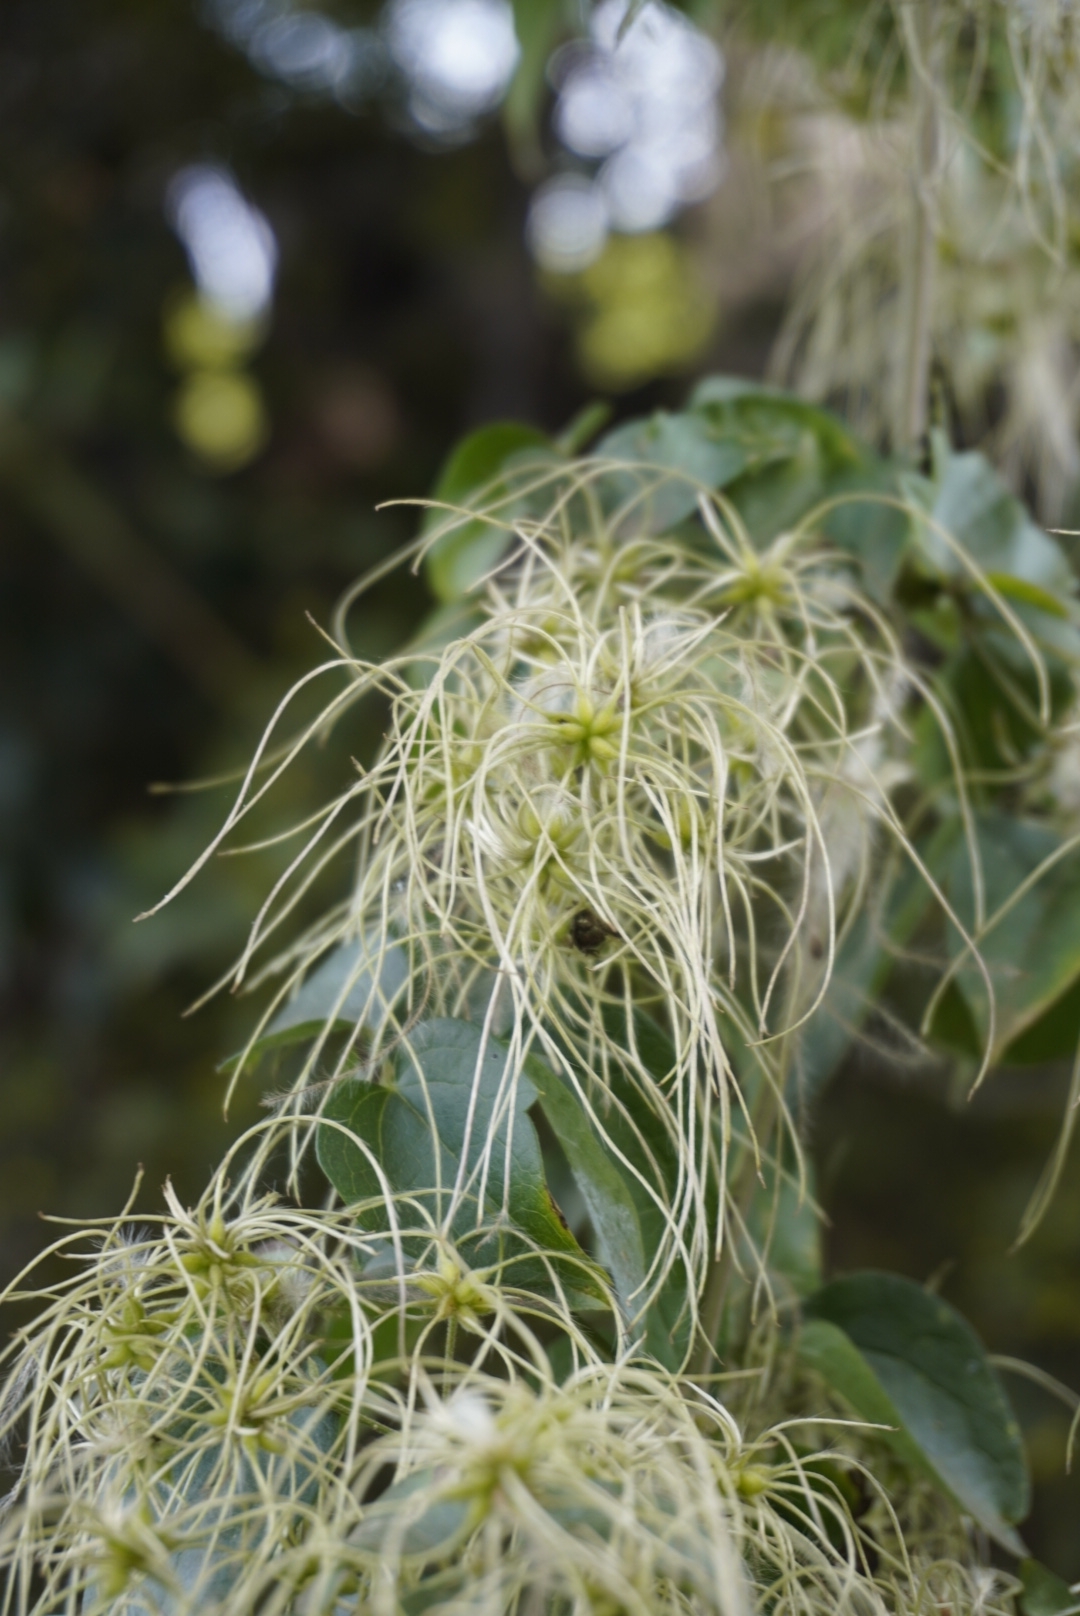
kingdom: Plantae
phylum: Tracheophyta
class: Magnoliopsida
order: Ranunculales
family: Ranunculaceae
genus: Clematis
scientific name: Clematis dioica
